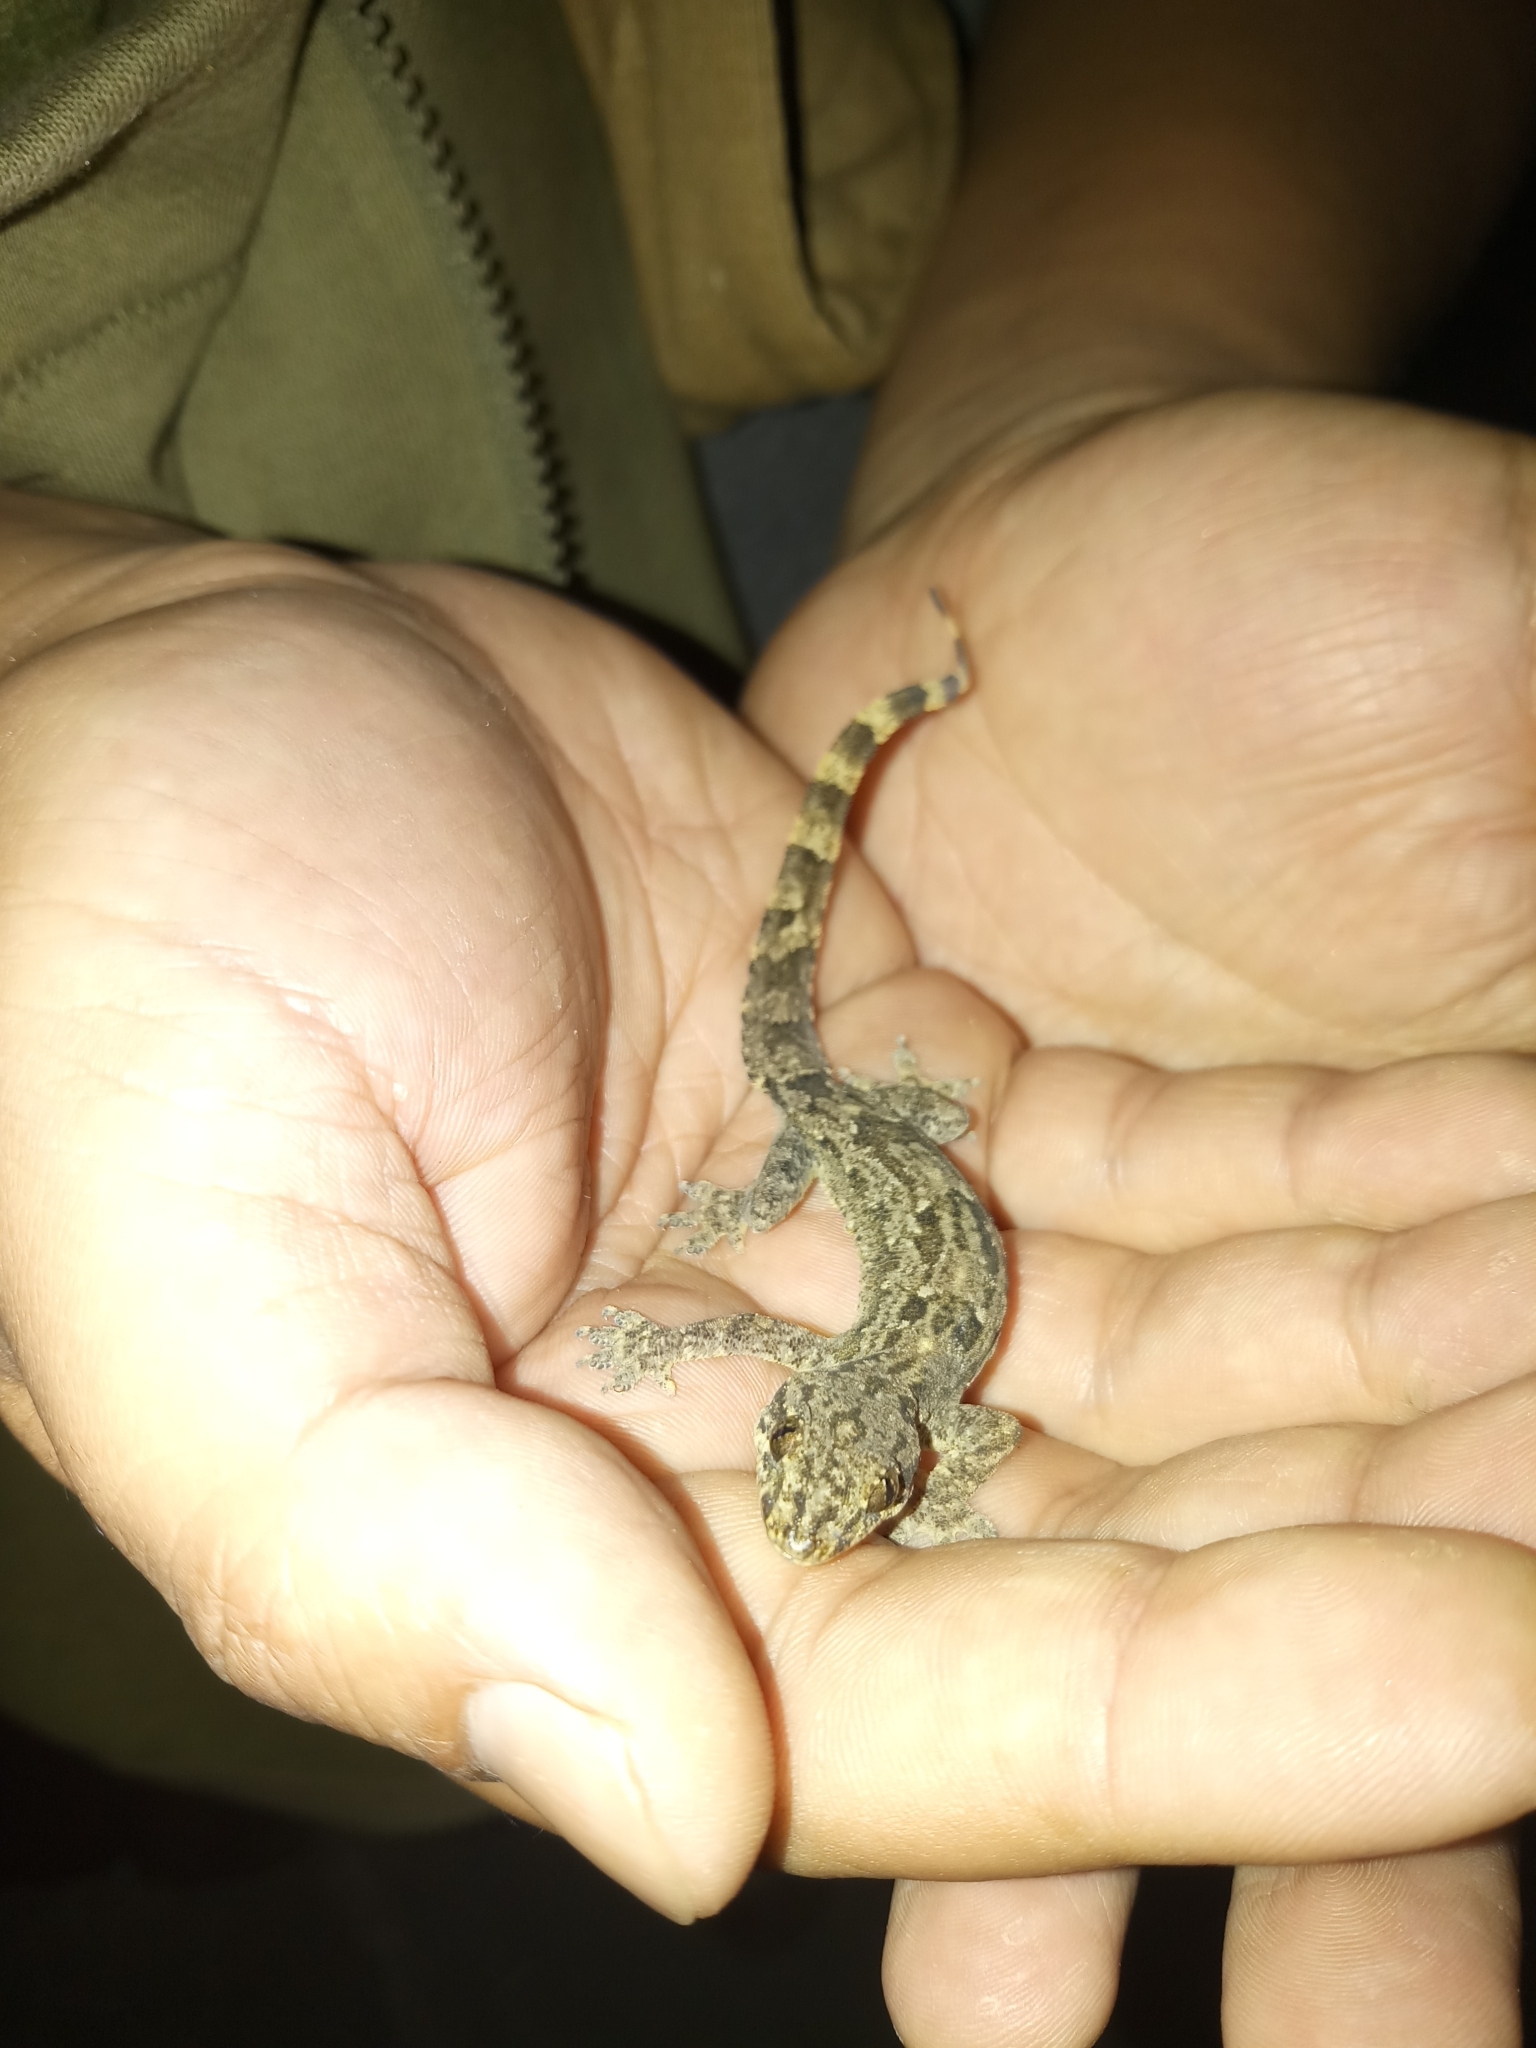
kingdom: Animalia
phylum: Chordata
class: Squamata
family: Gekkonidae
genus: Hemidactylus
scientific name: Hemidactylus platyurus
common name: Flat-tailed house gecko
